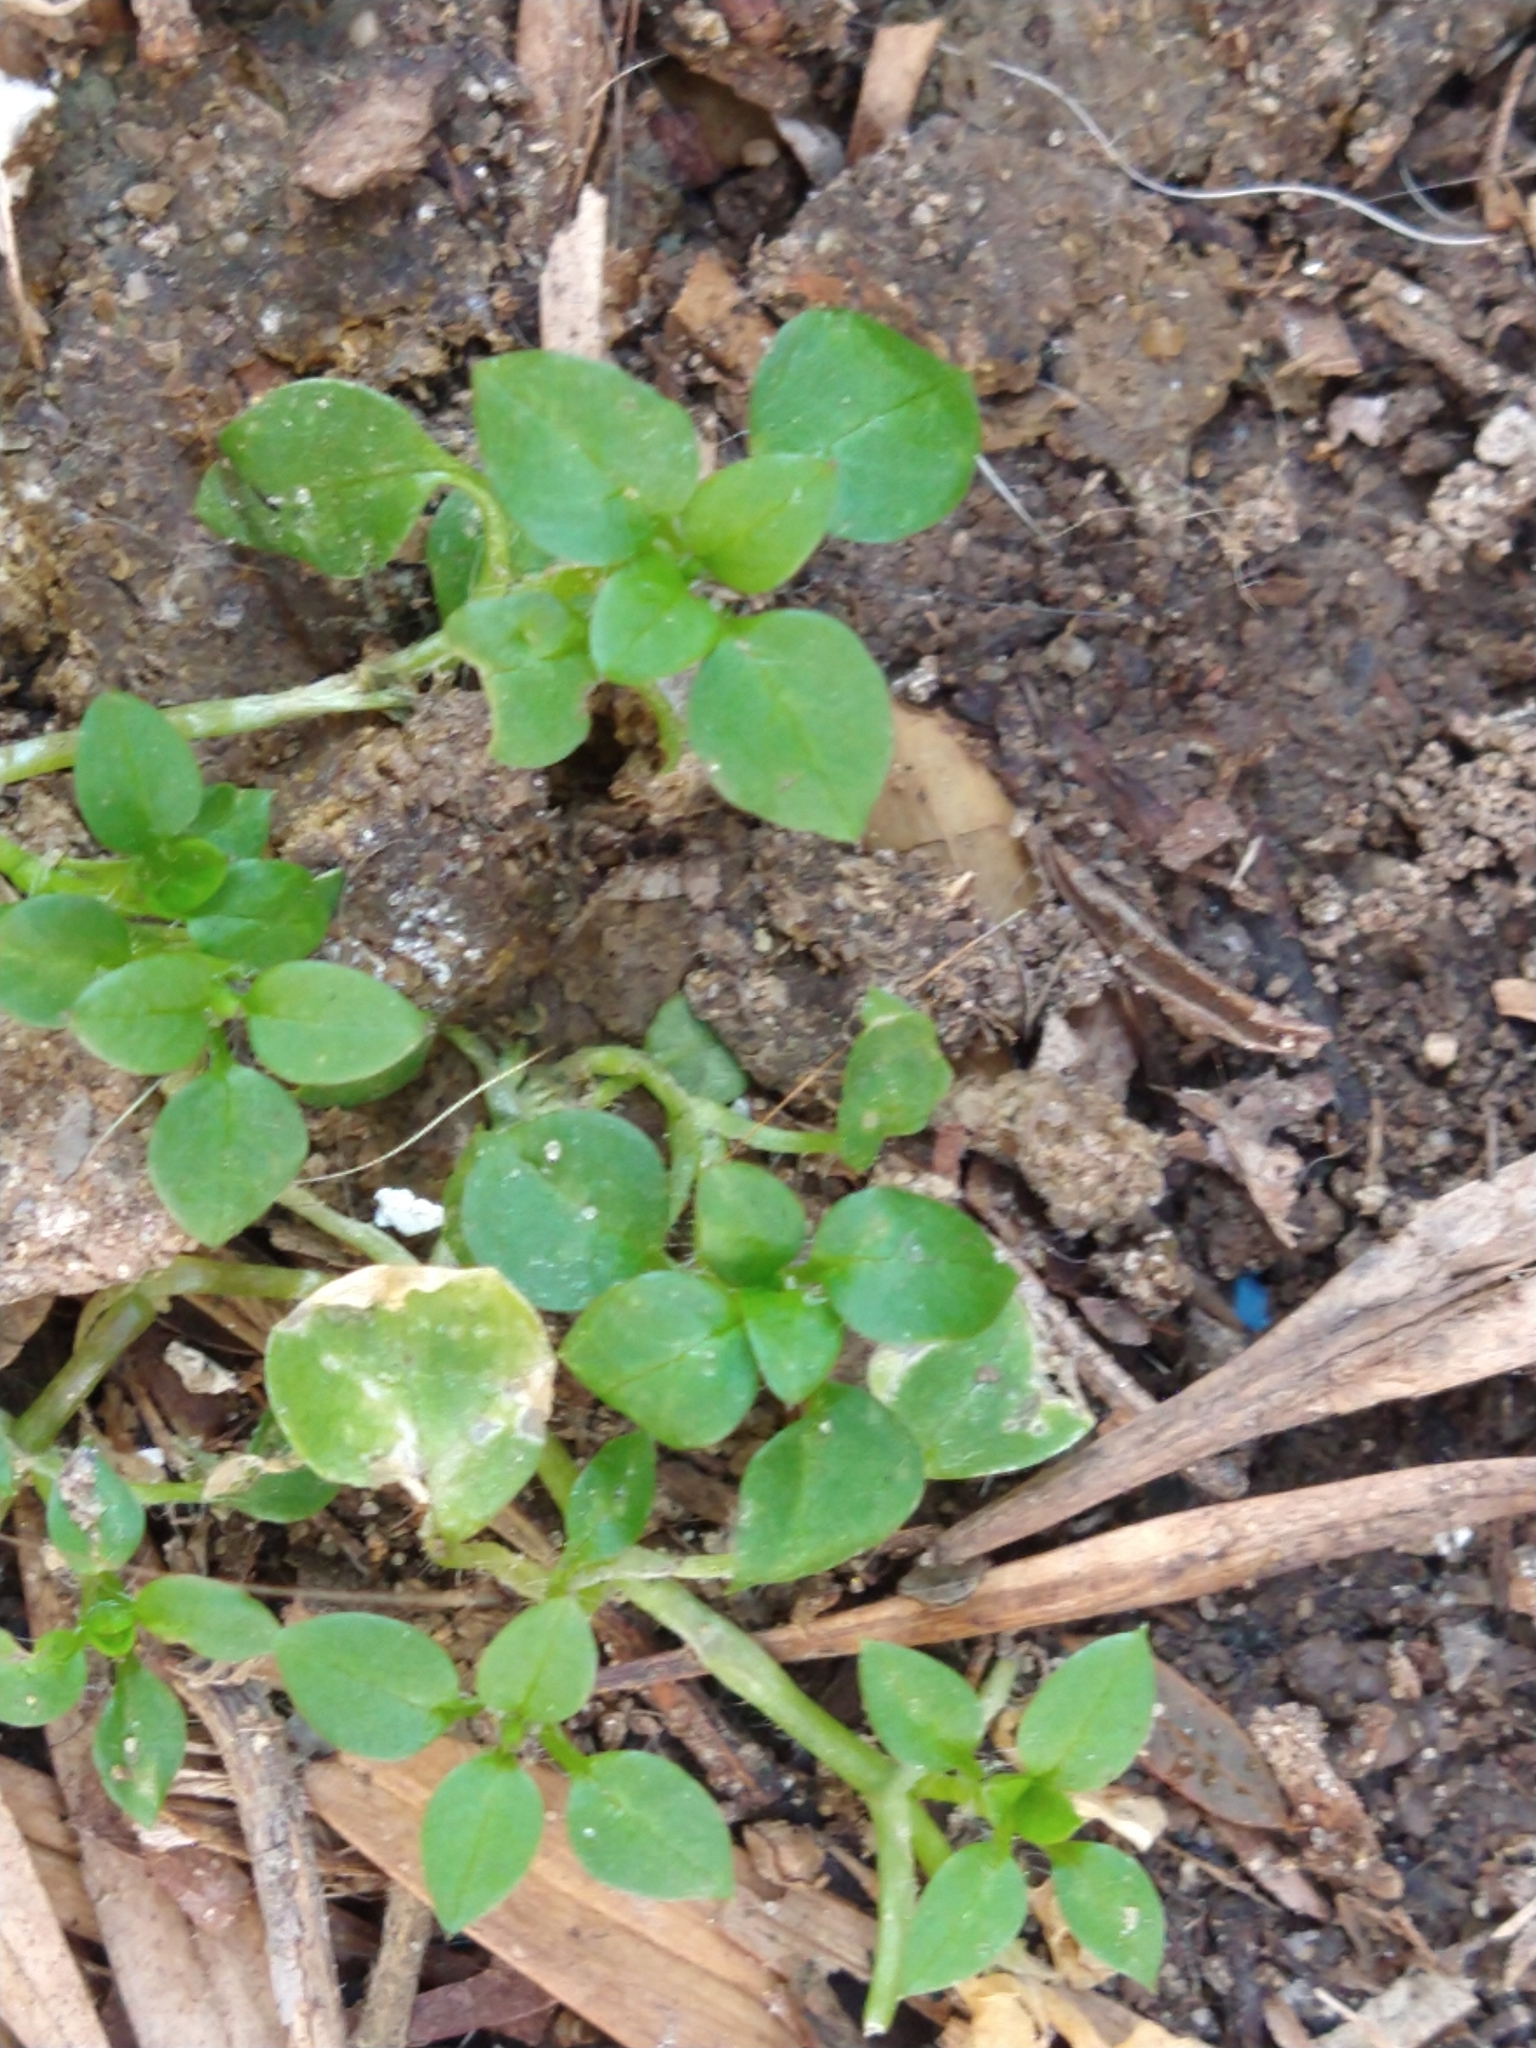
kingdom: Plantae
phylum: Tracheophyta
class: Magnoliopsida
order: Caryophyllales
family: Caryophyllaceae
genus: Stellaria
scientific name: Stellaria media
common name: Common chickweed
